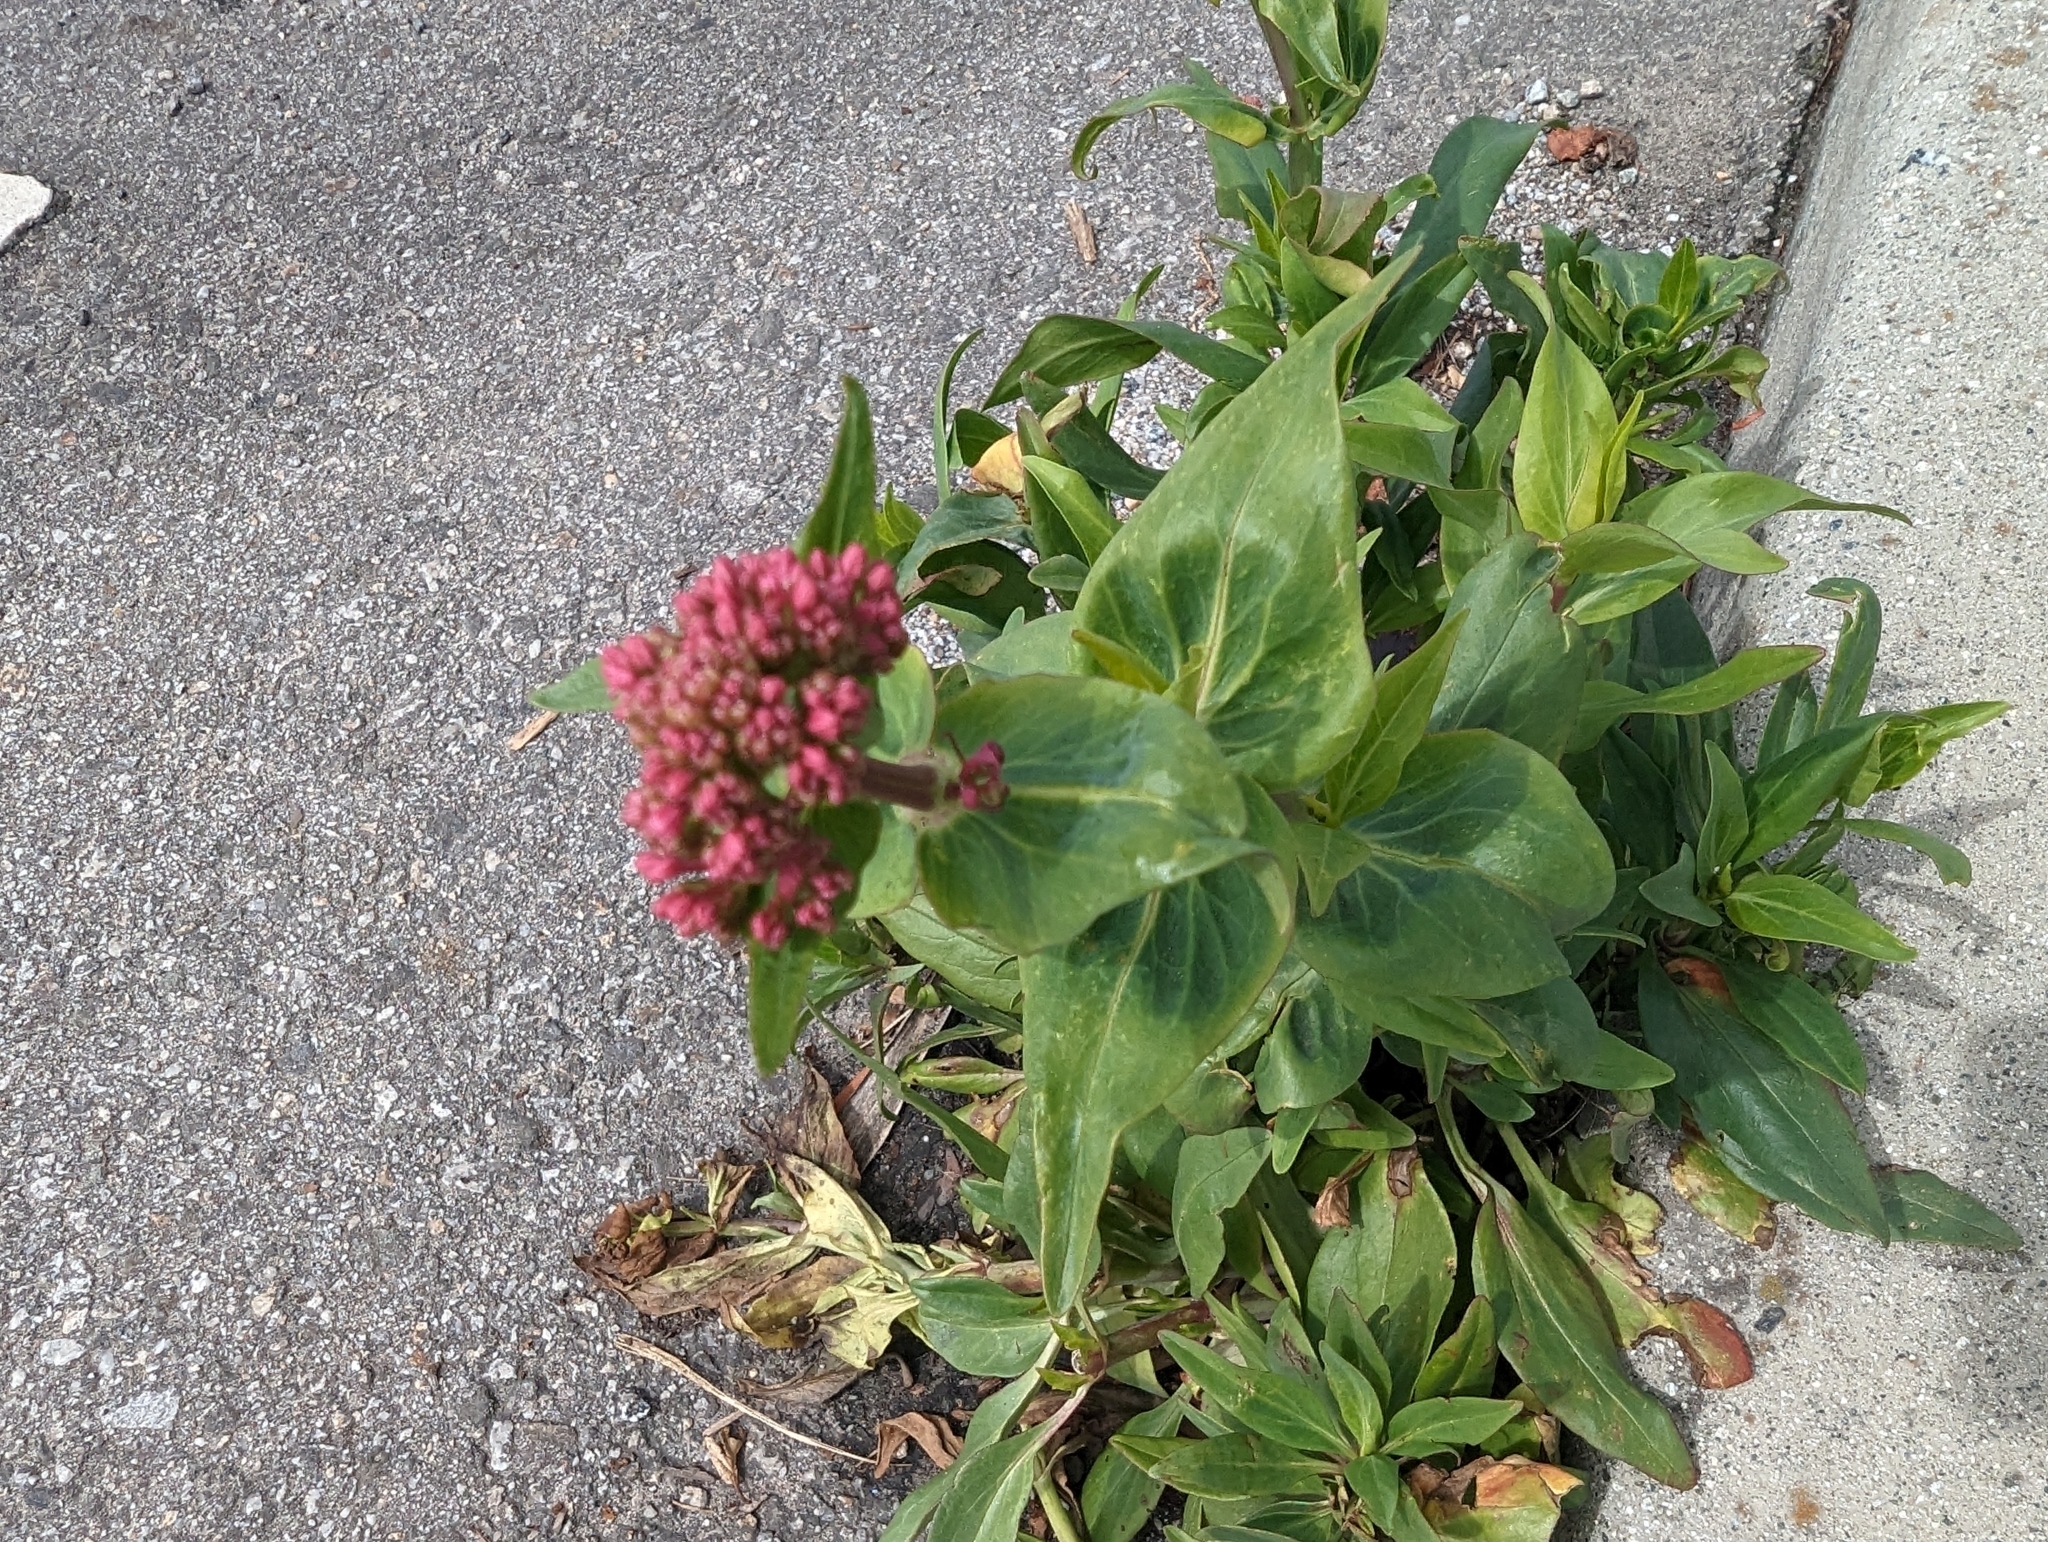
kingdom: Plantae
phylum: Tracheophyta
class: Magnoliopsida
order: Dipsacales
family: Caprifoliaceae
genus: Centranthus
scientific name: Centranthus ruber
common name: Red valerian
